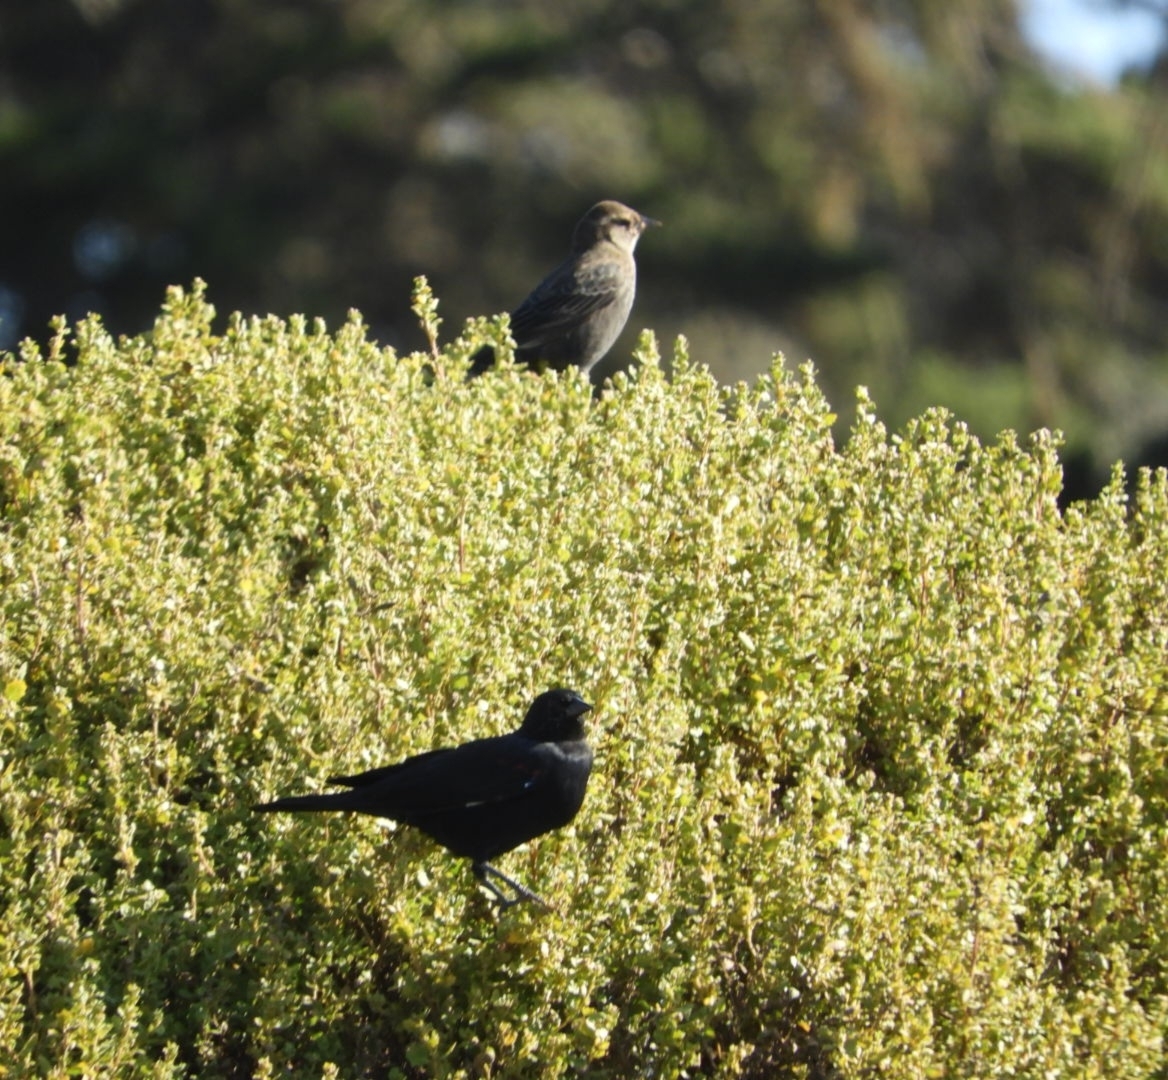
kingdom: Animalia
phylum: Chordata
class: Aves
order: Passeriformes
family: Icteridae
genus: Agelaius
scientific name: Agelaius phoeniceus
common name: Red-winged blackbird
